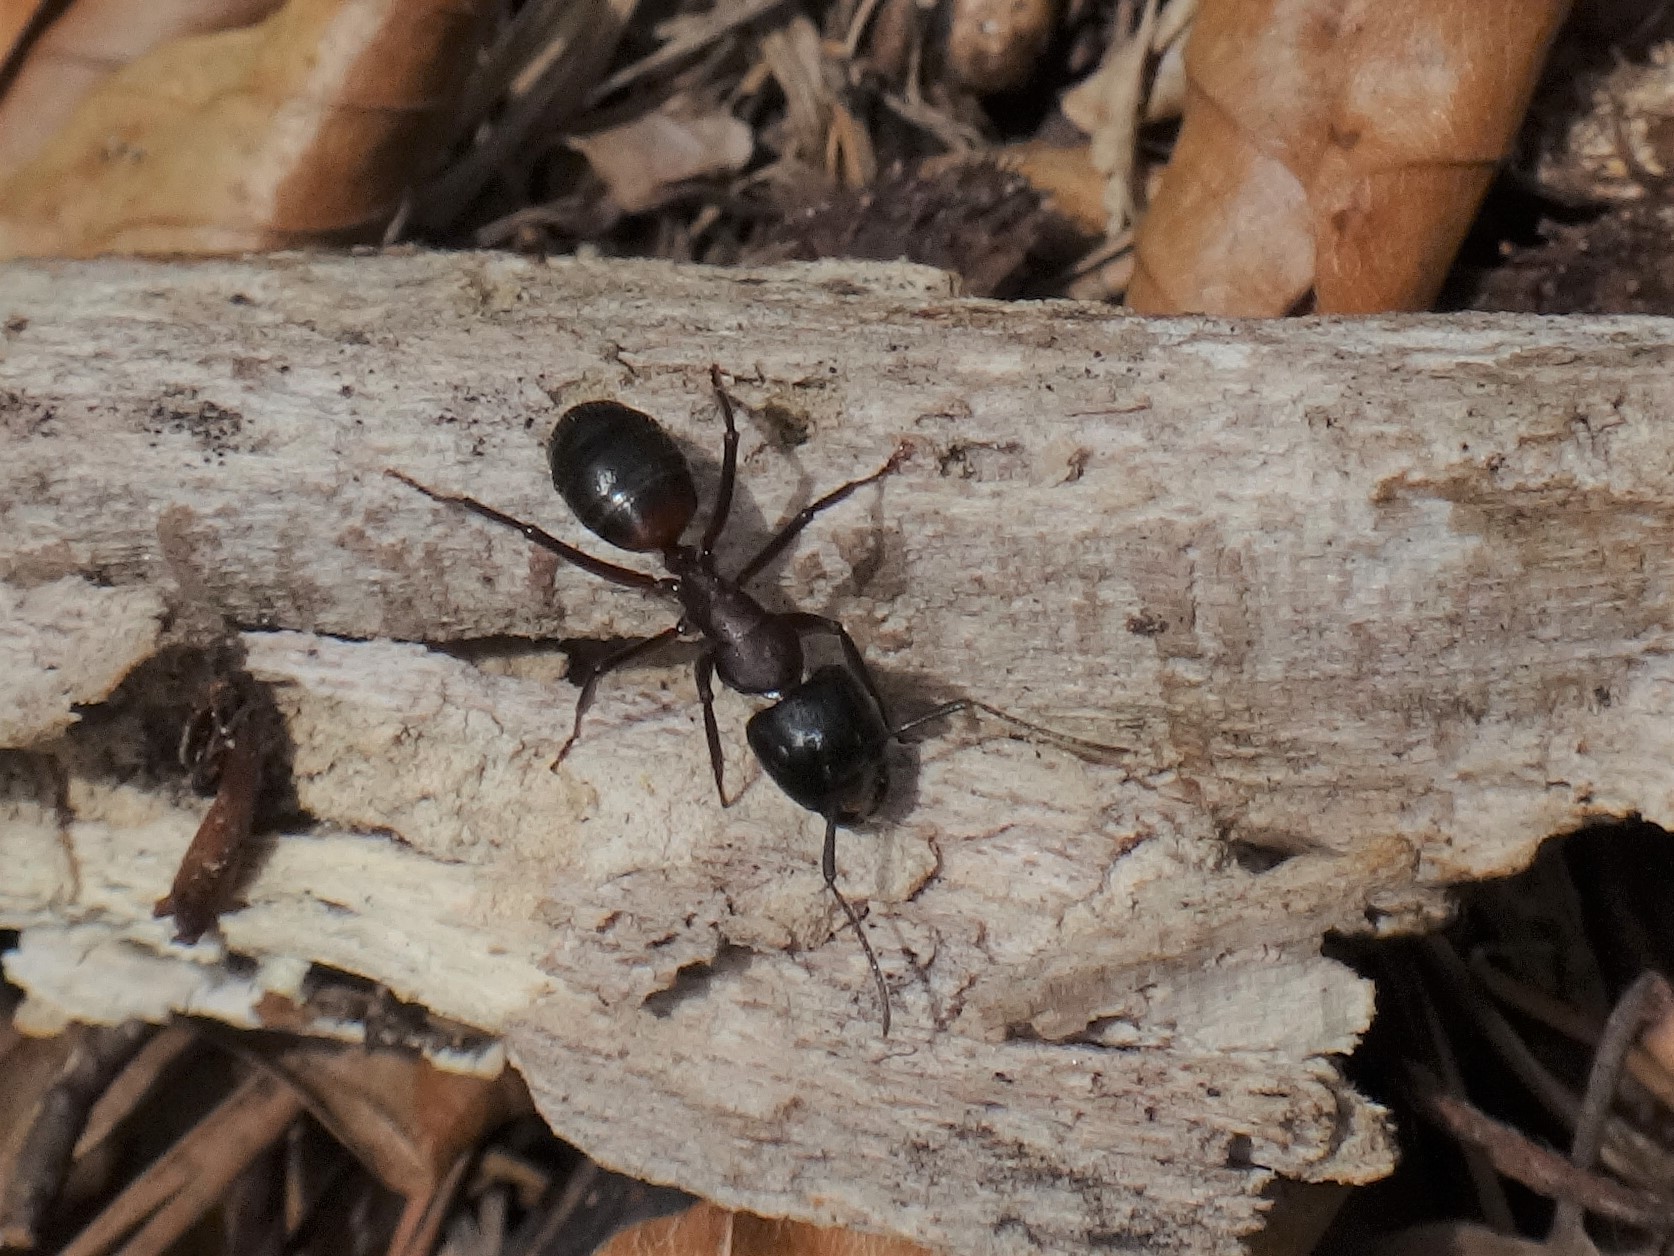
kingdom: Animalia
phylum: Arthropoda
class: Insecta
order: Hymenoptera
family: Formicidae
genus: Camponotus
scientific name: Camponotus ligniperdus
